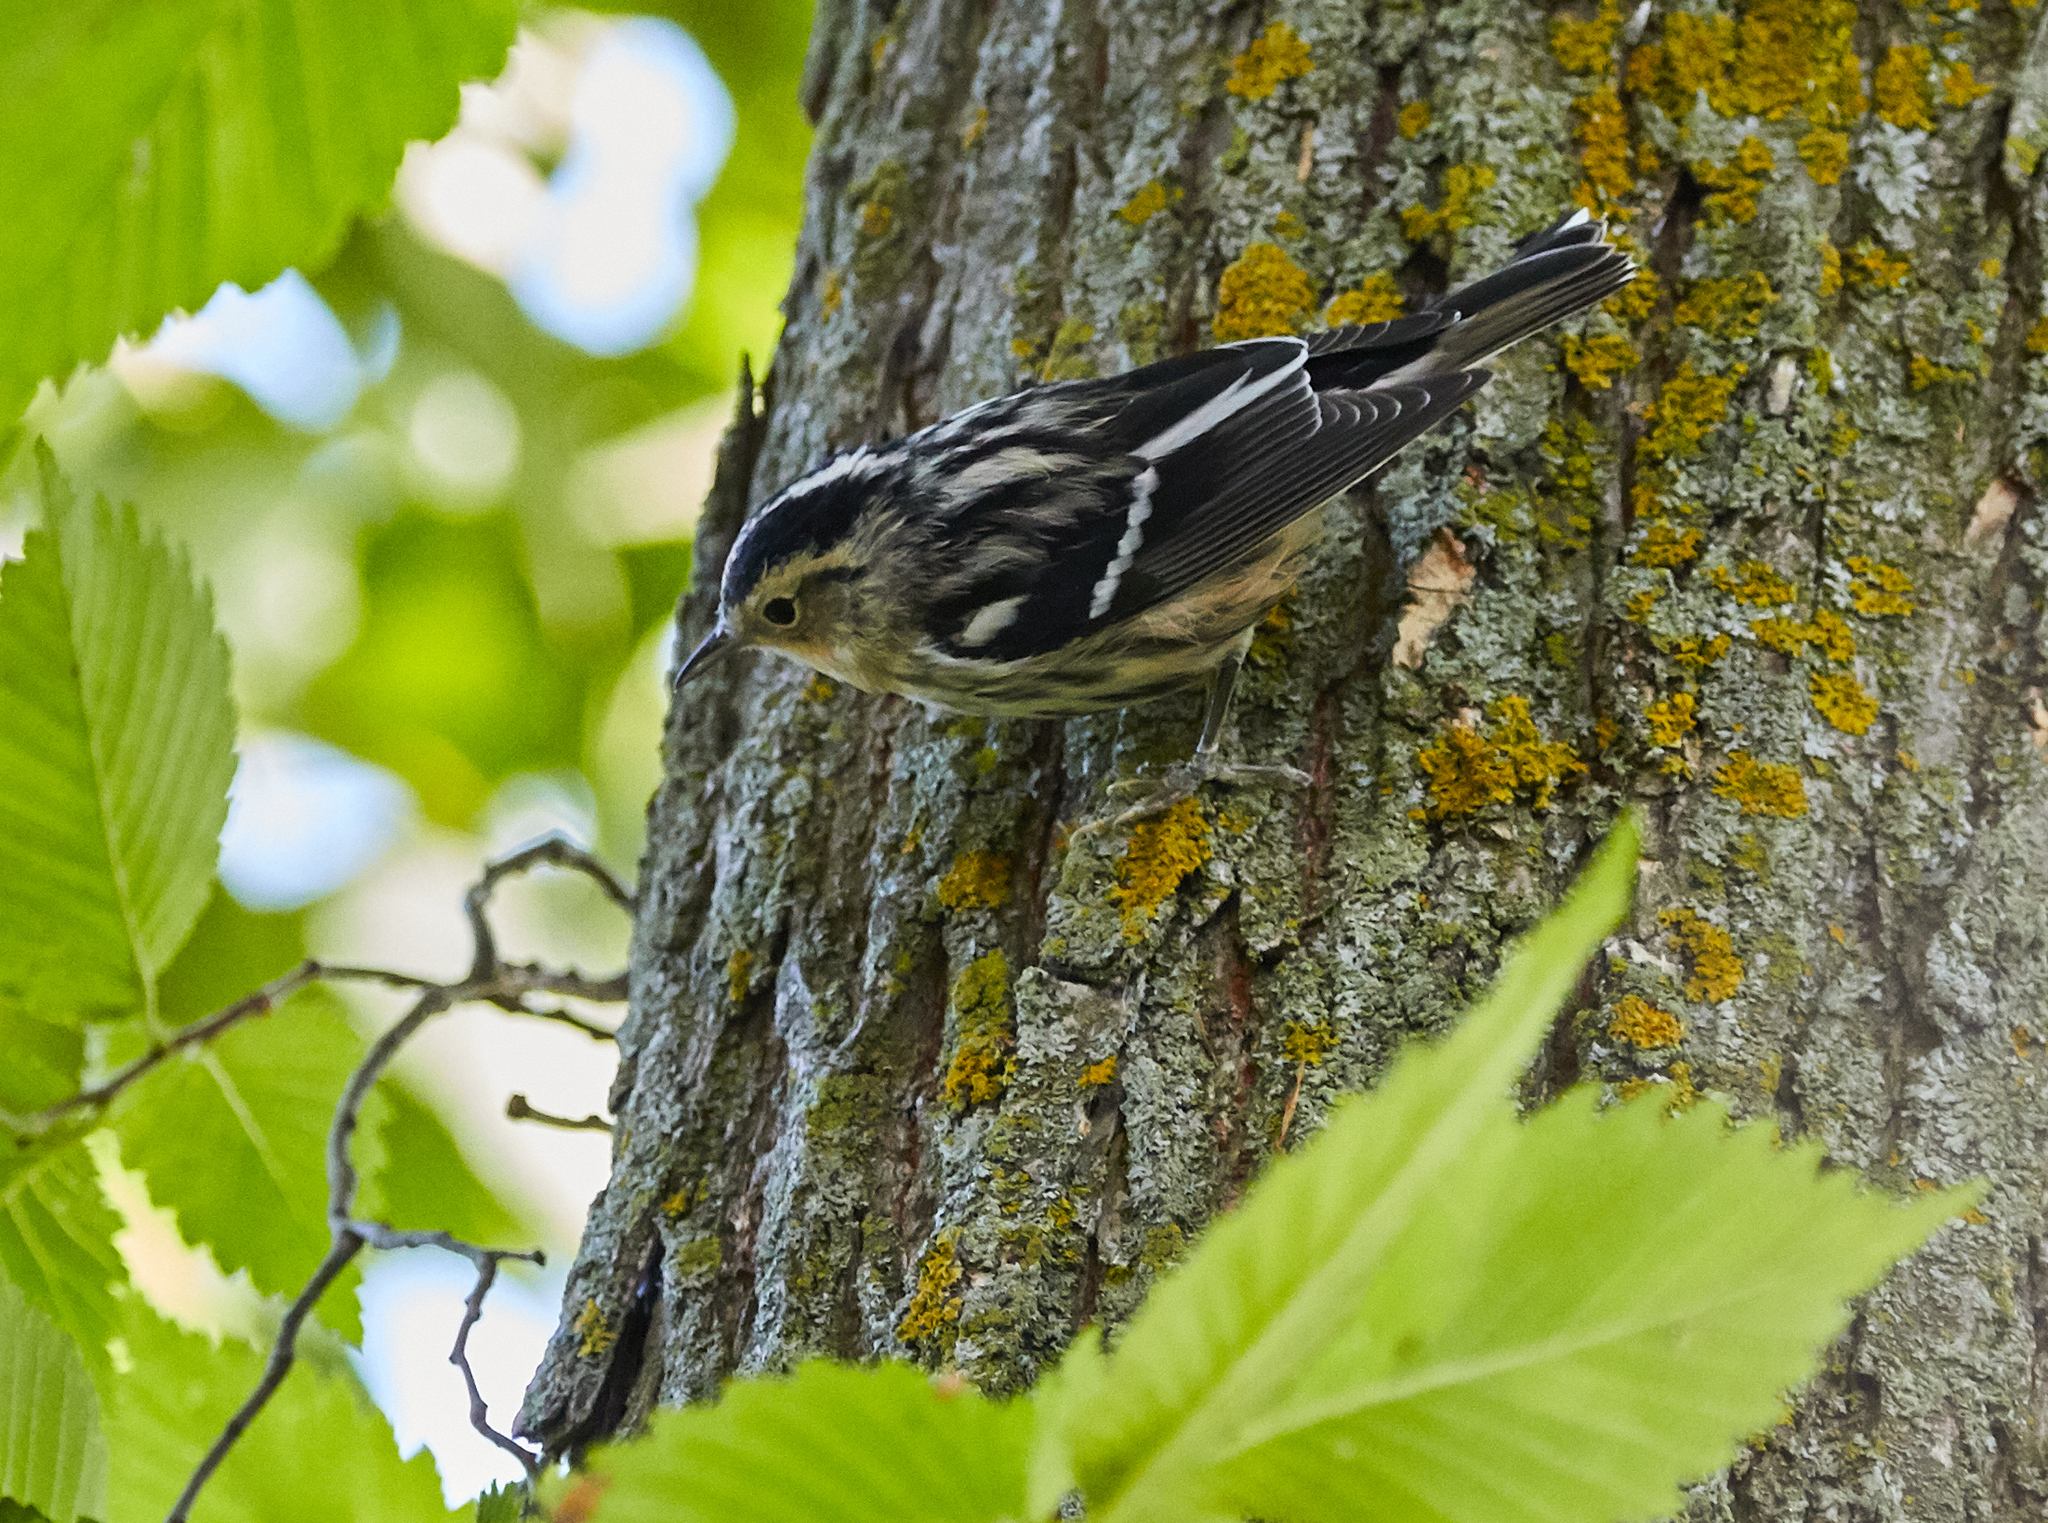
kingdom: Animalia
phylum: Chordata
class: Aves
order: Passeriformes
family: Parulidae
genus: Mniotilta
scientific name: Mniotilta varia
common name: Black-and-white warbler
